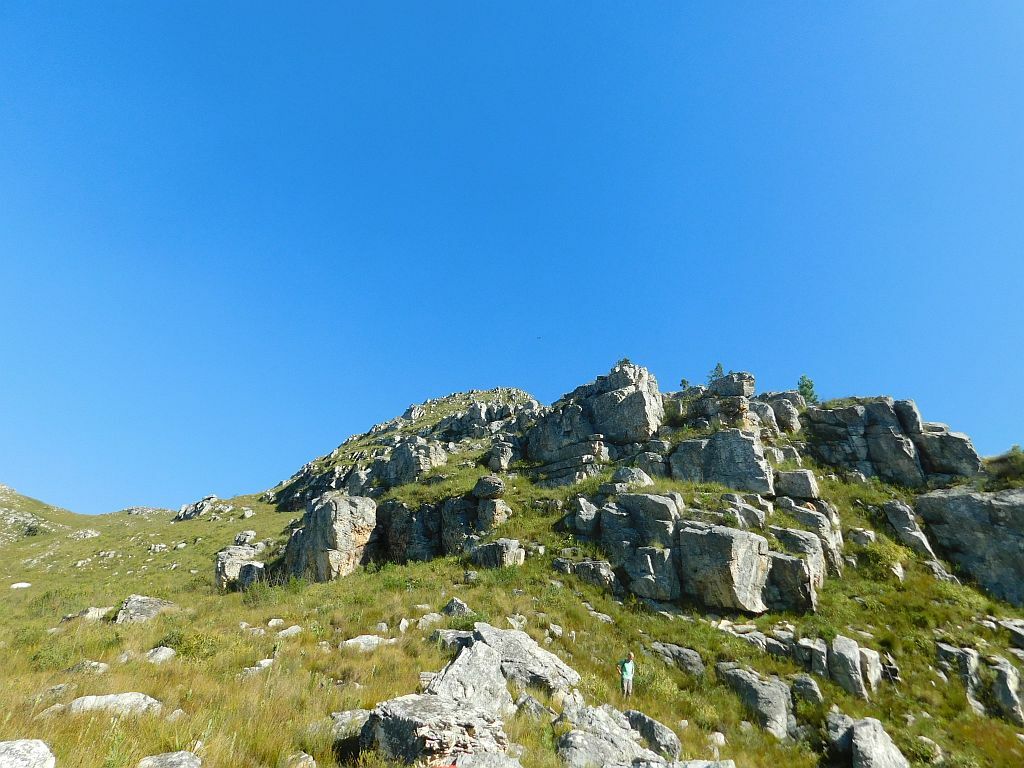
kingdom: Animalia
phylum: Chordata
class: Aves
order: Accipitriformes
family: Accipitridae
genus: Hieraaetus
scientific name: Hieraaetus pennatus
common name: Booted eagle
